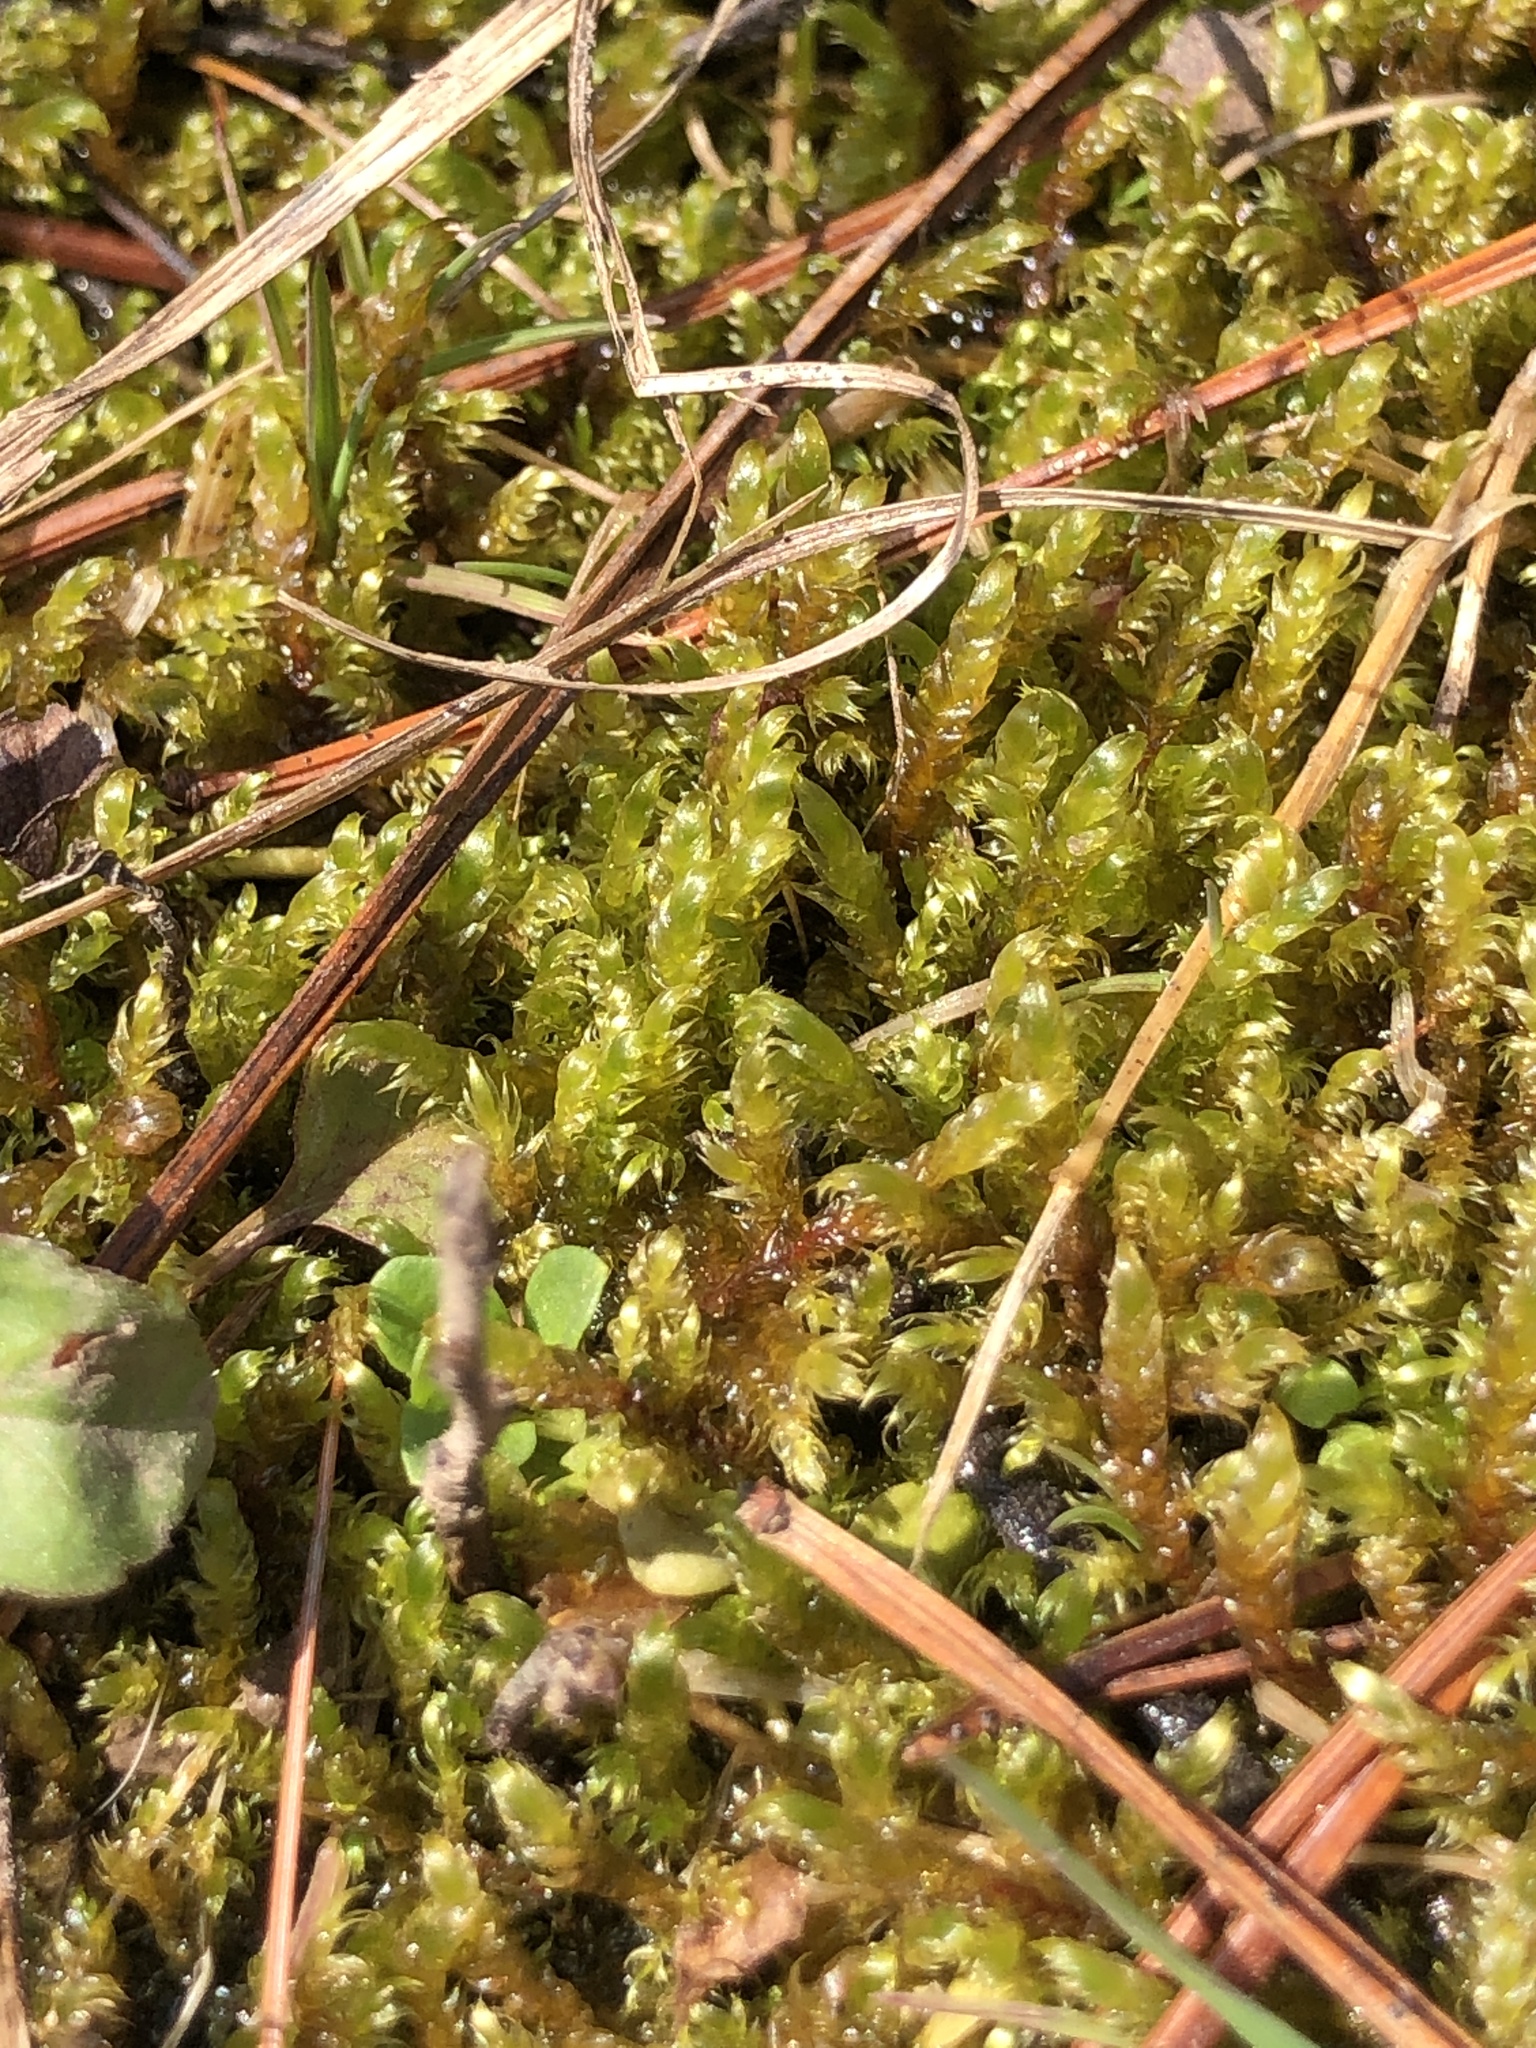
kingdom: Plantae
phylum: Bryophyta
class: Bryopsida
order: Hypnales
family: Pylaisiaceae
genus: Calliergonella
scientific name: Calliergonella lindbergii
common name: Lindberg's plait-moss
